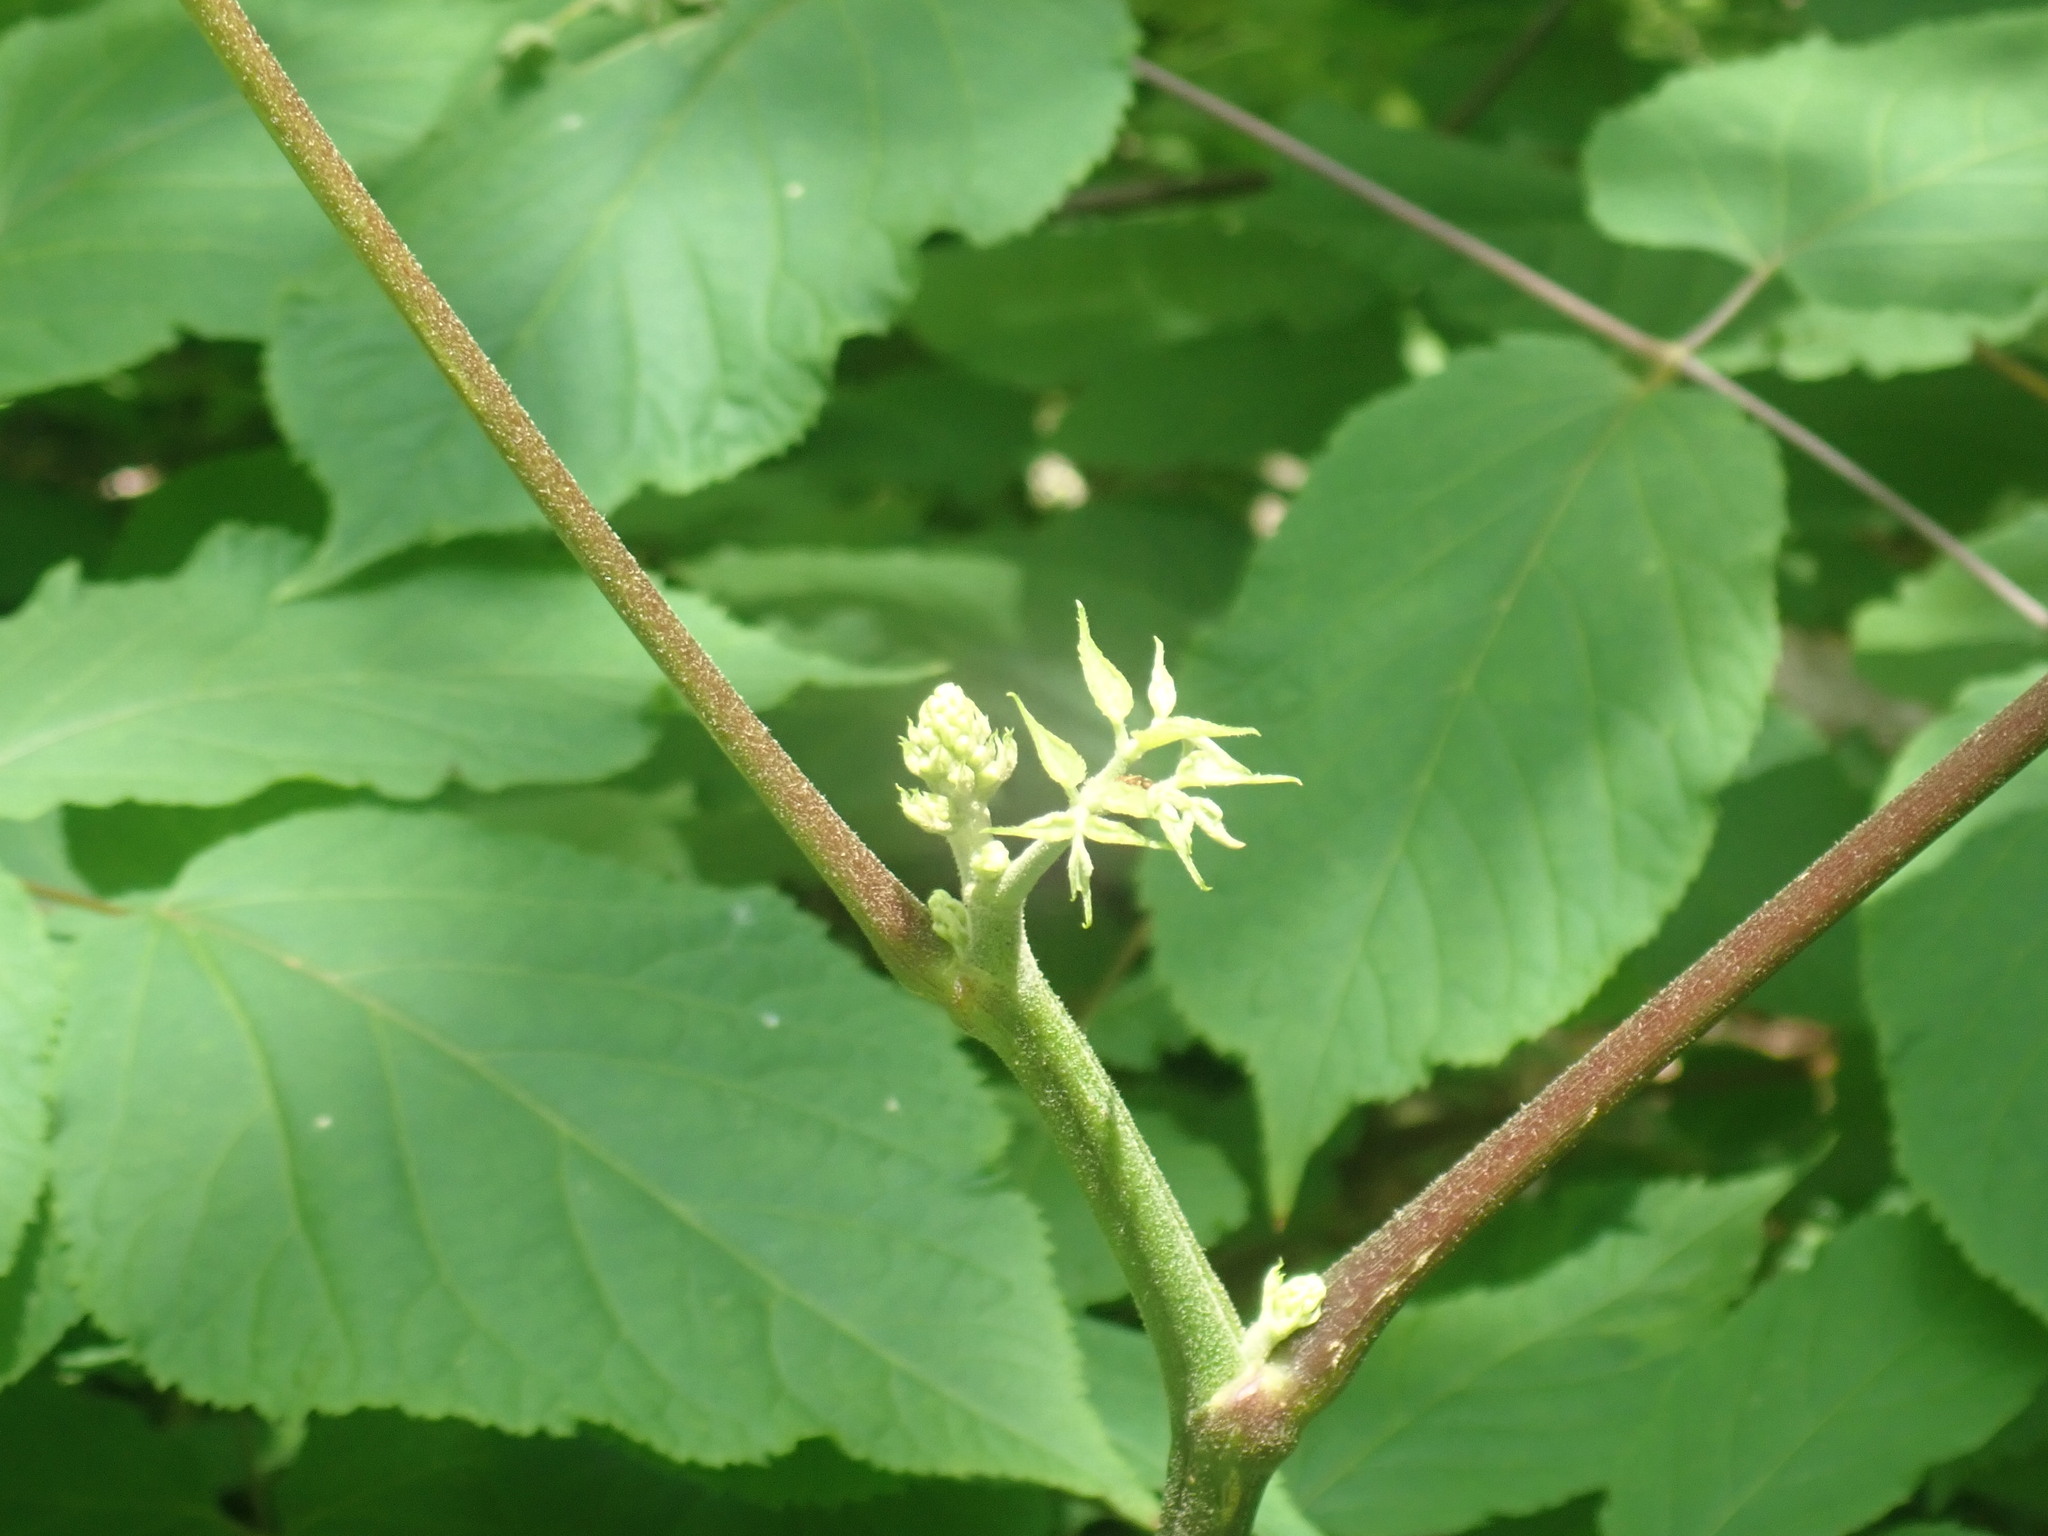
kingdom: Plantae
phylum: Tracheophyta
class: Magnoliopsida
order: Apiales
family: Araliaceae
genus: Aralia
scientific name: Aralia racemosa
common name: American-spikenard
